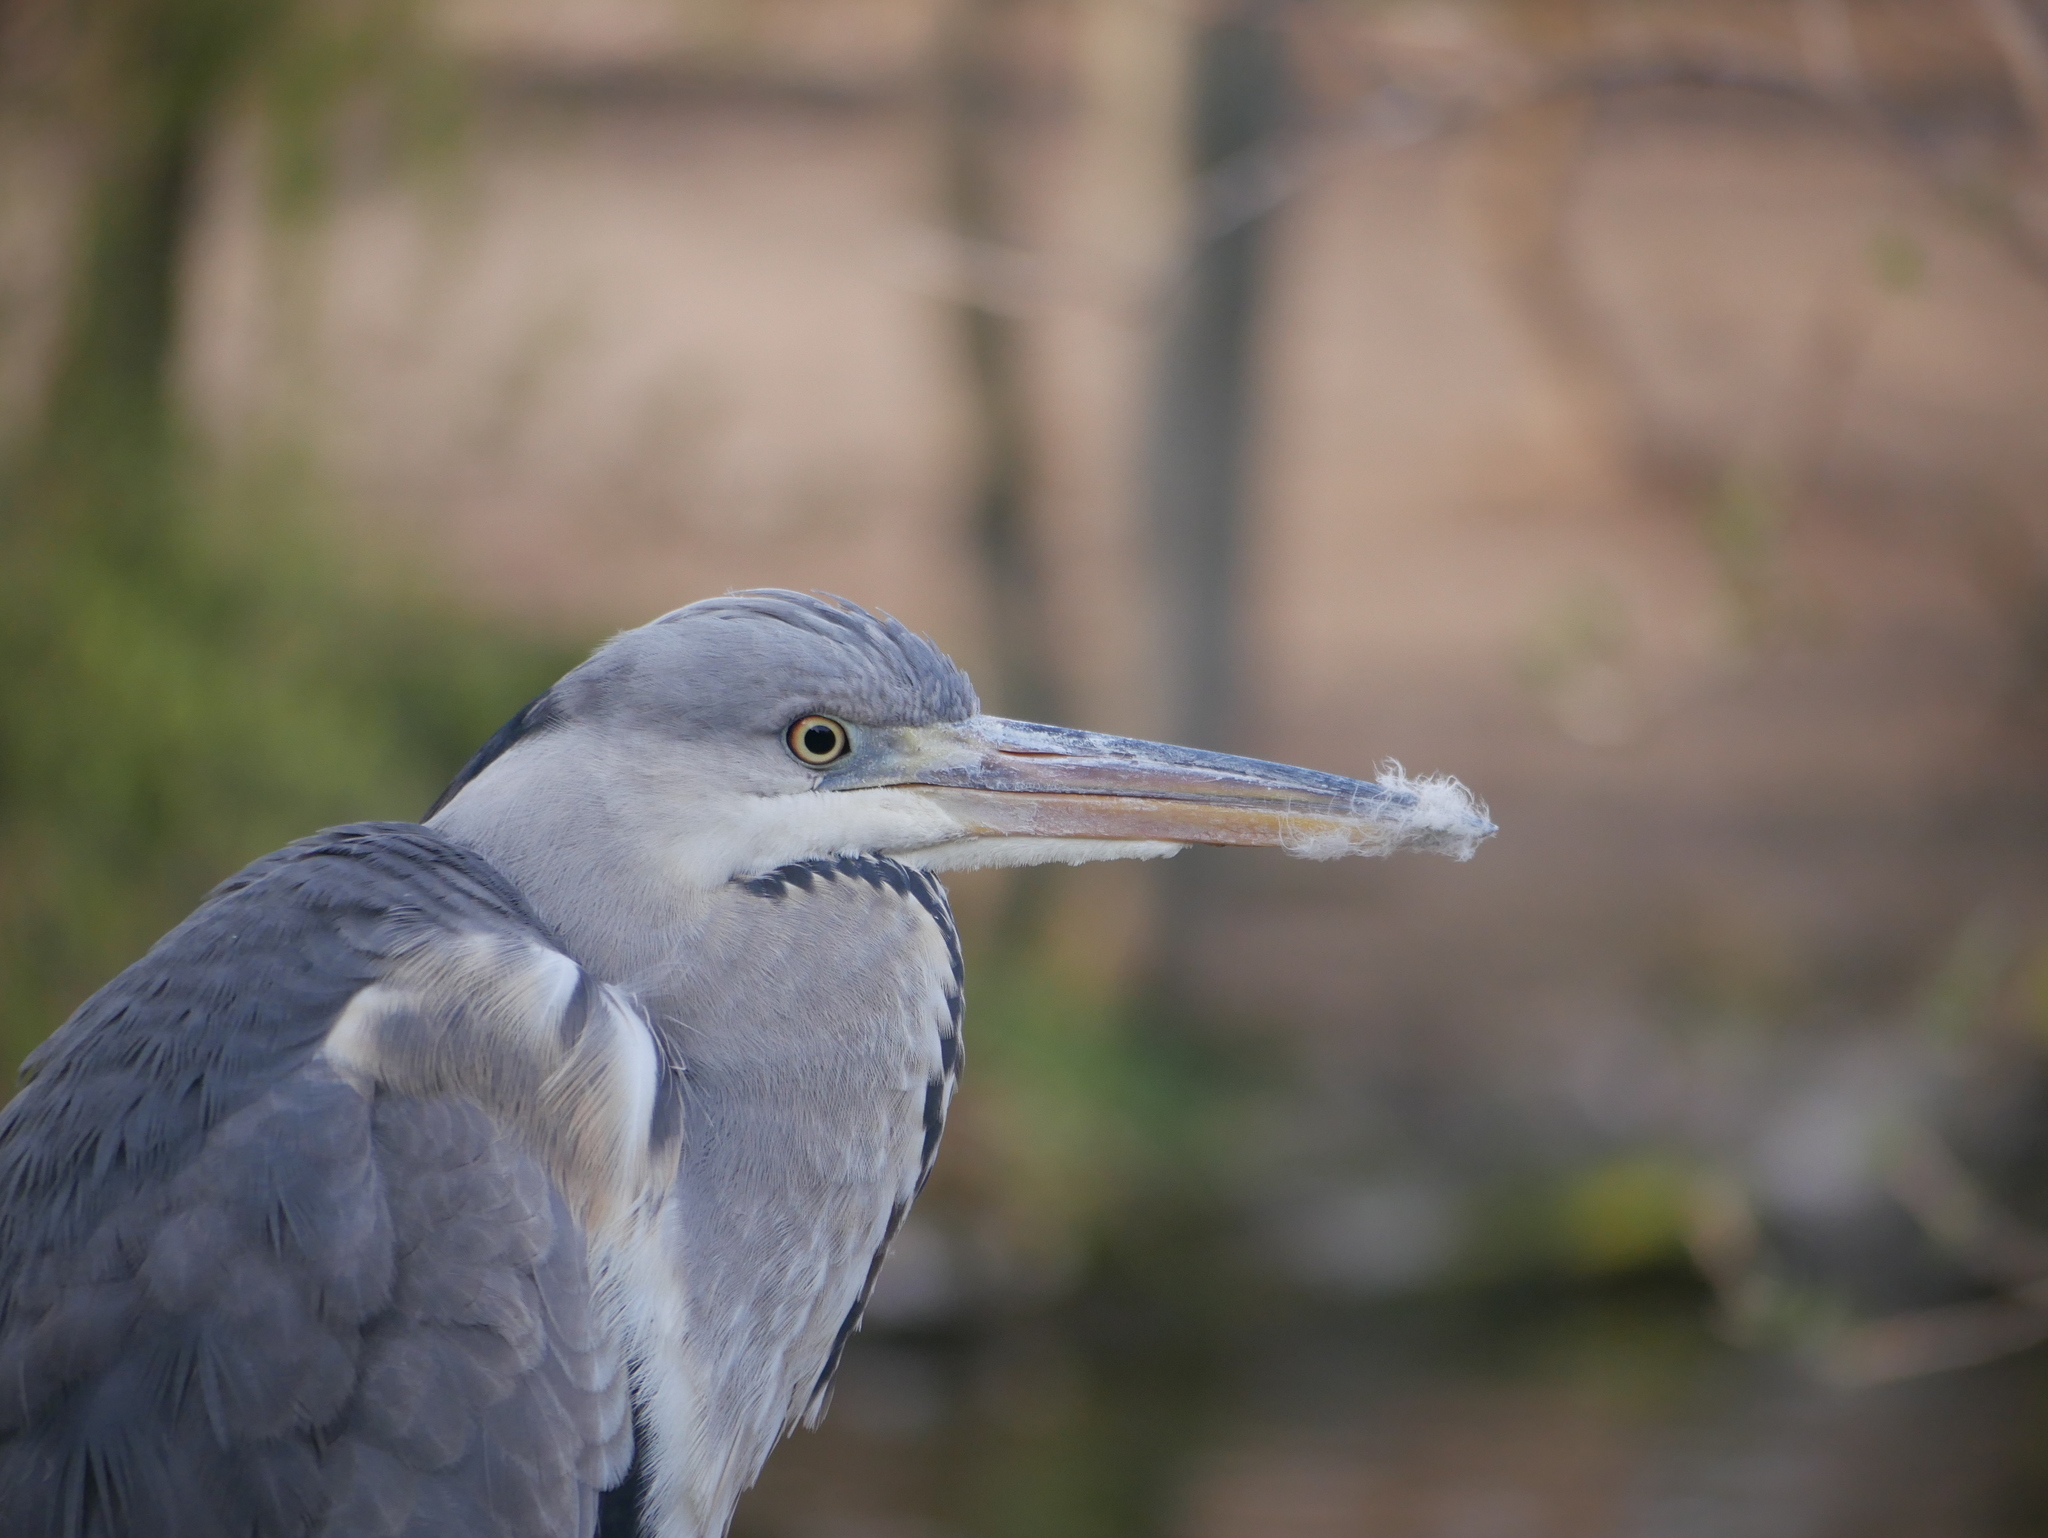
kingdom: Animalia
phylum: Chordata
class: Aves
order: Pelecaniformes
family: Ardeidae
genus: Ardea
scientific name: Ardea cinerea
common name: Grey heron
